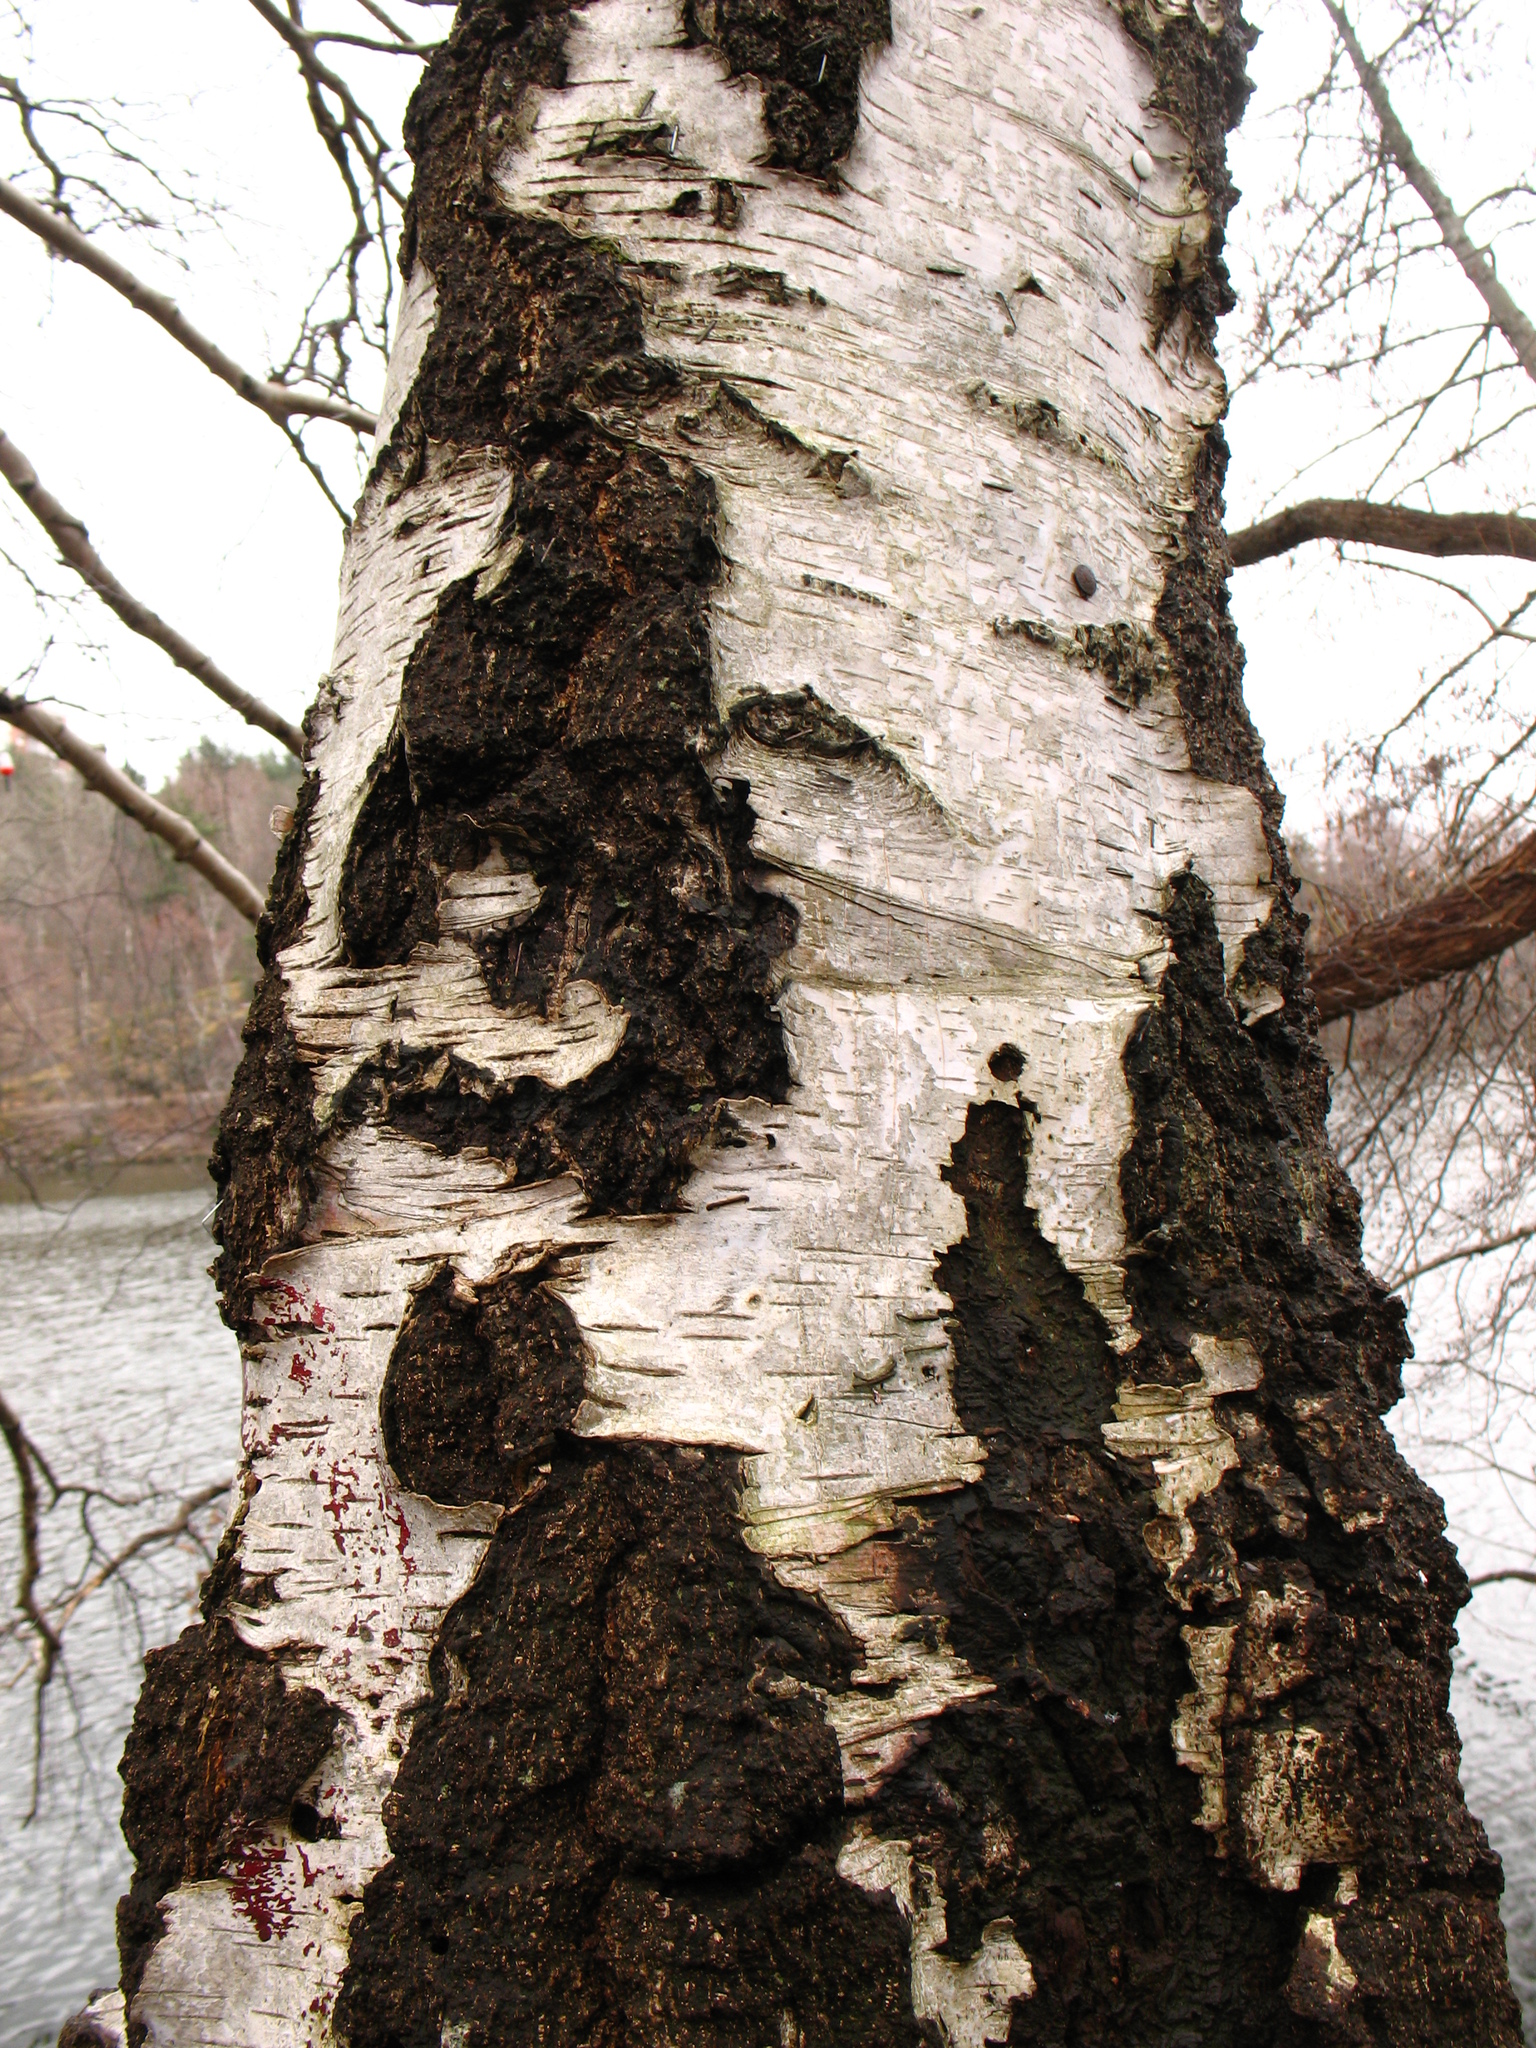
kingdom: Plantae
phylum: Tracheophyta
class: Magnoliopsida
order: Fagales
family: Betulaceae
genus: Betula
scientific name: Betula pendula
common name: Silver birch
